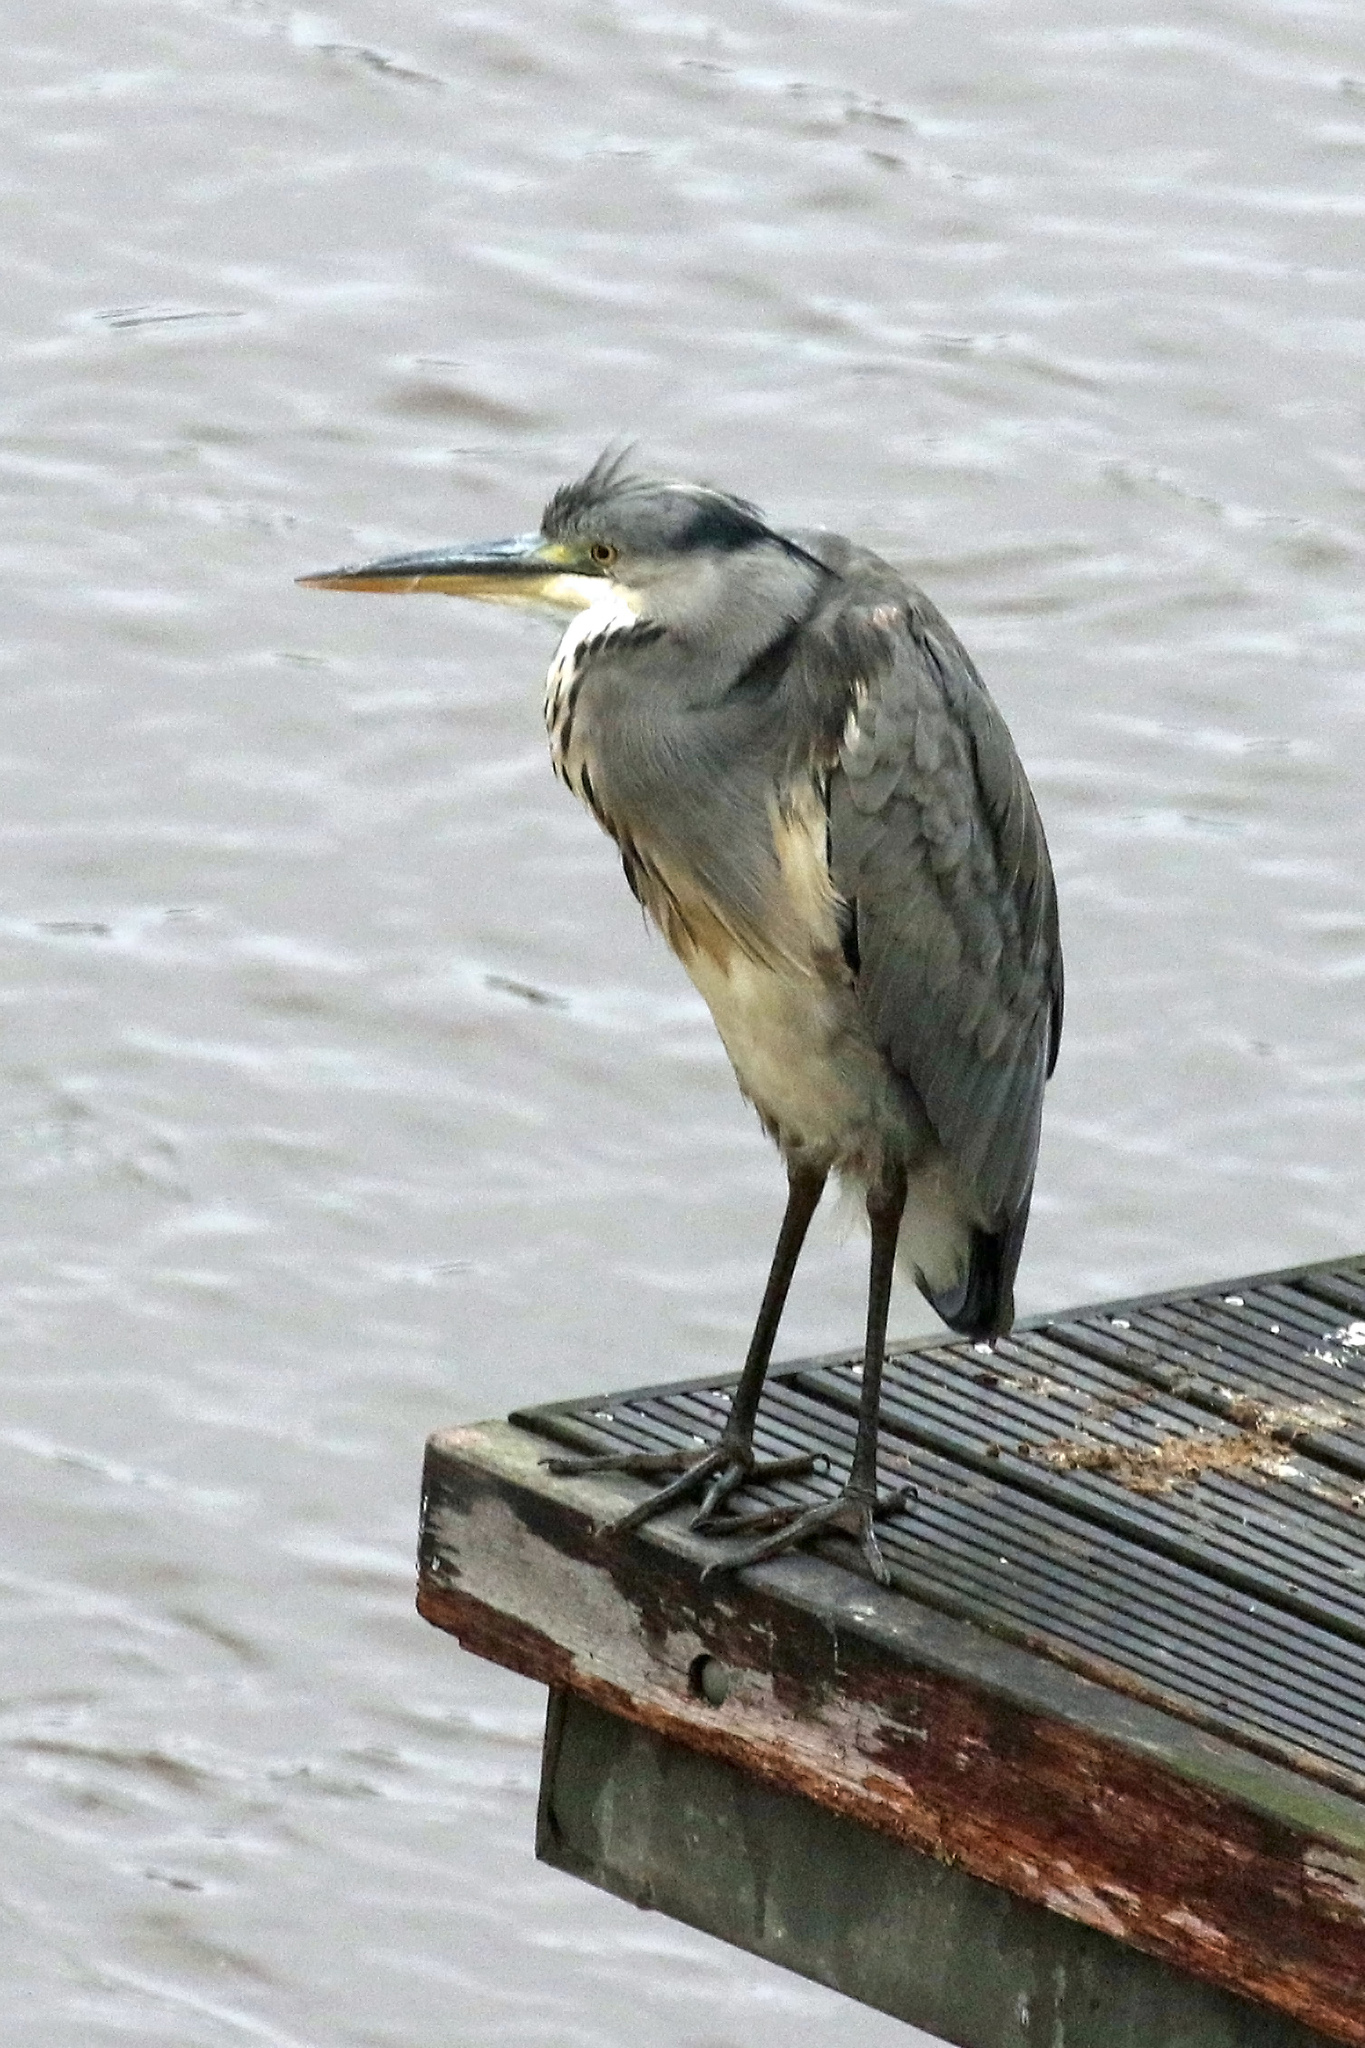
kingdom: Animalia
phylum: Chordata
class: Aves
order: Pelecaniformes
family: Ardeidae
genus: Ardea
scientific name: Ardea cinerea
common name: Grey heron
